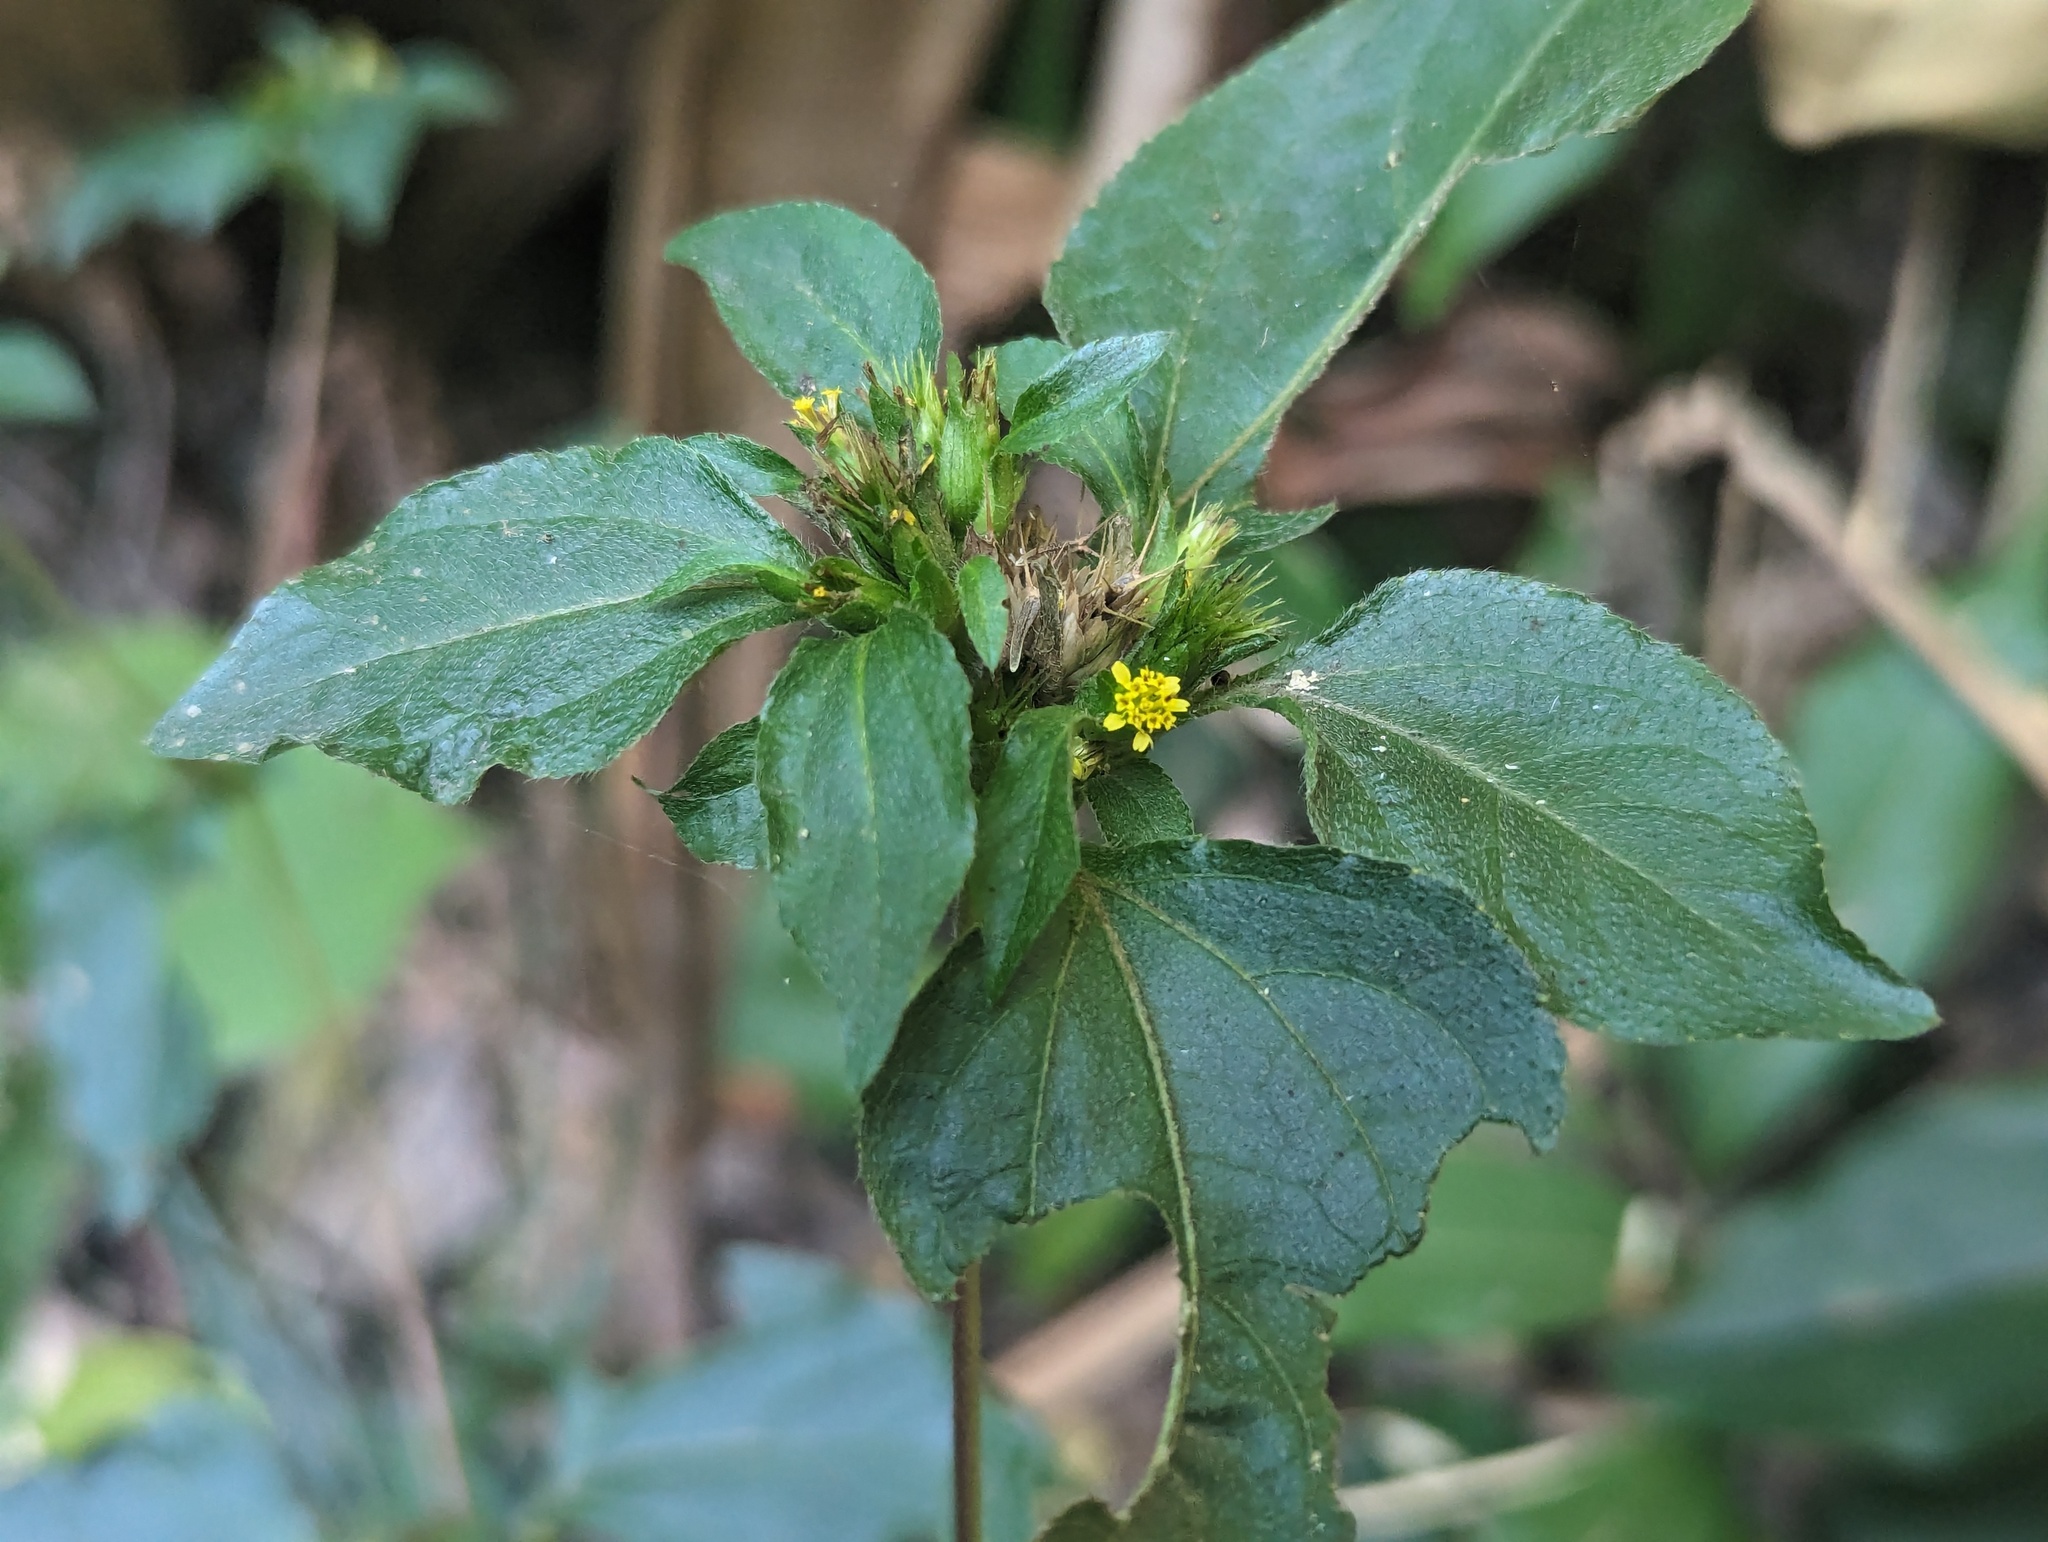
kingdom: Plantae
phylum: Tracheophyta
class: Magnoliopsida
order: Asterales
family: Asteraceae
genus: Synedrella
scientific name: Synedrella nodiflora
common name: Nodeweed
